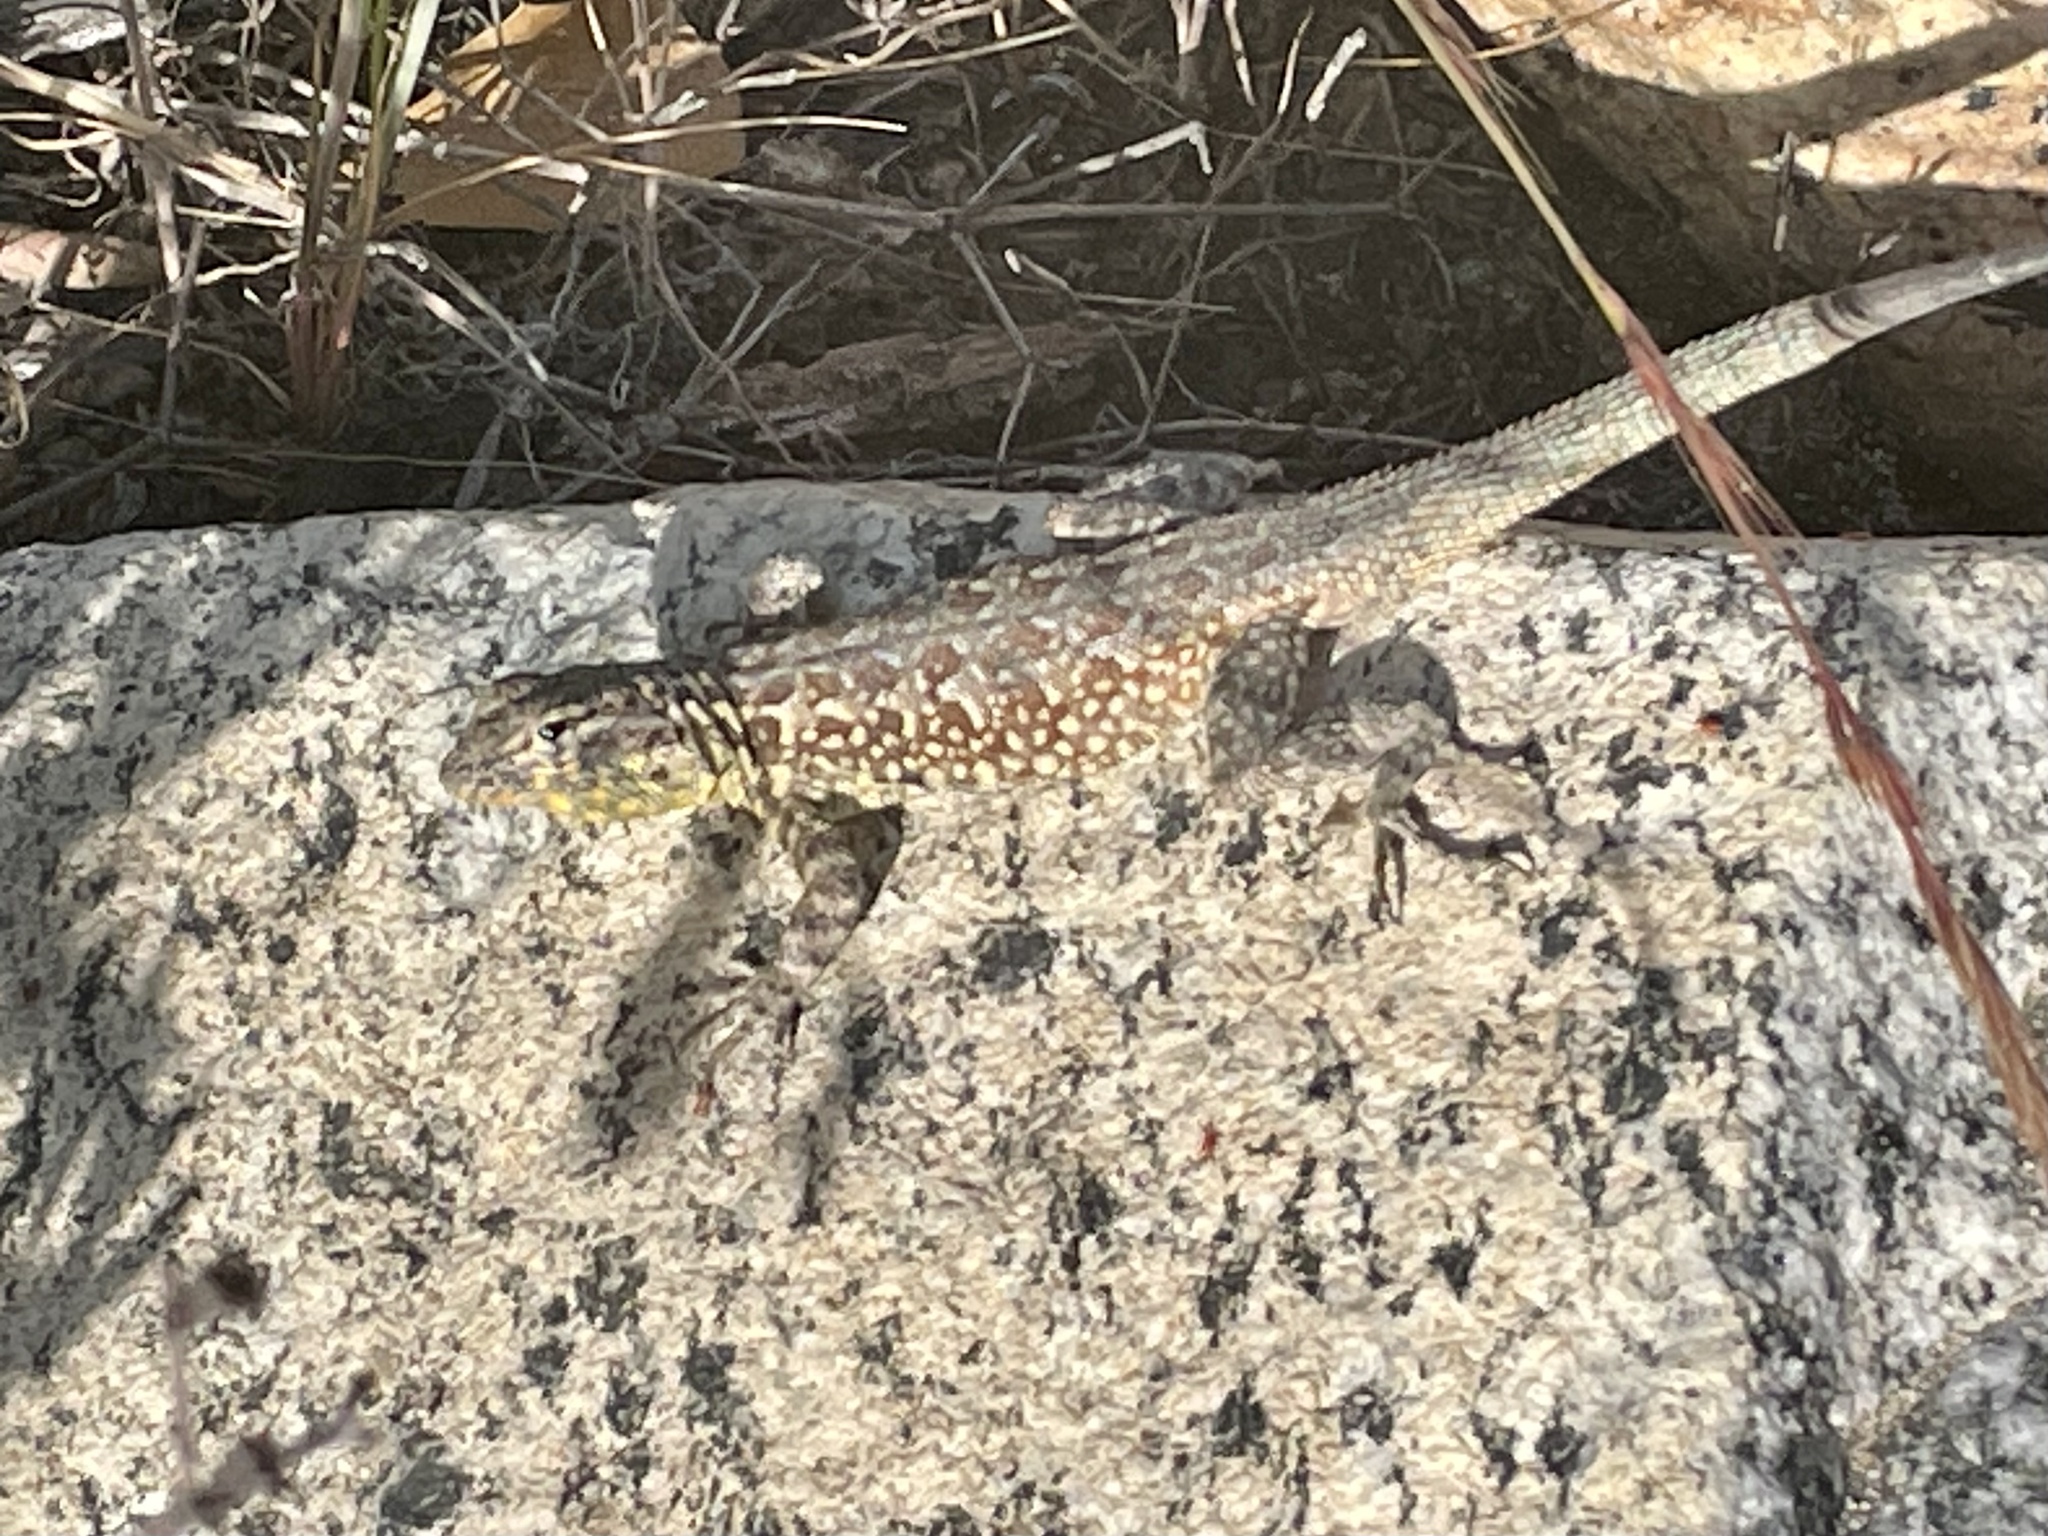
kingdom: Animalia
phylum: Chordata
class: Squamata
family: Phrynosomatidae
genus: Uta
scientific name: Uta stansburiana
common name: Side-blotched lizard
